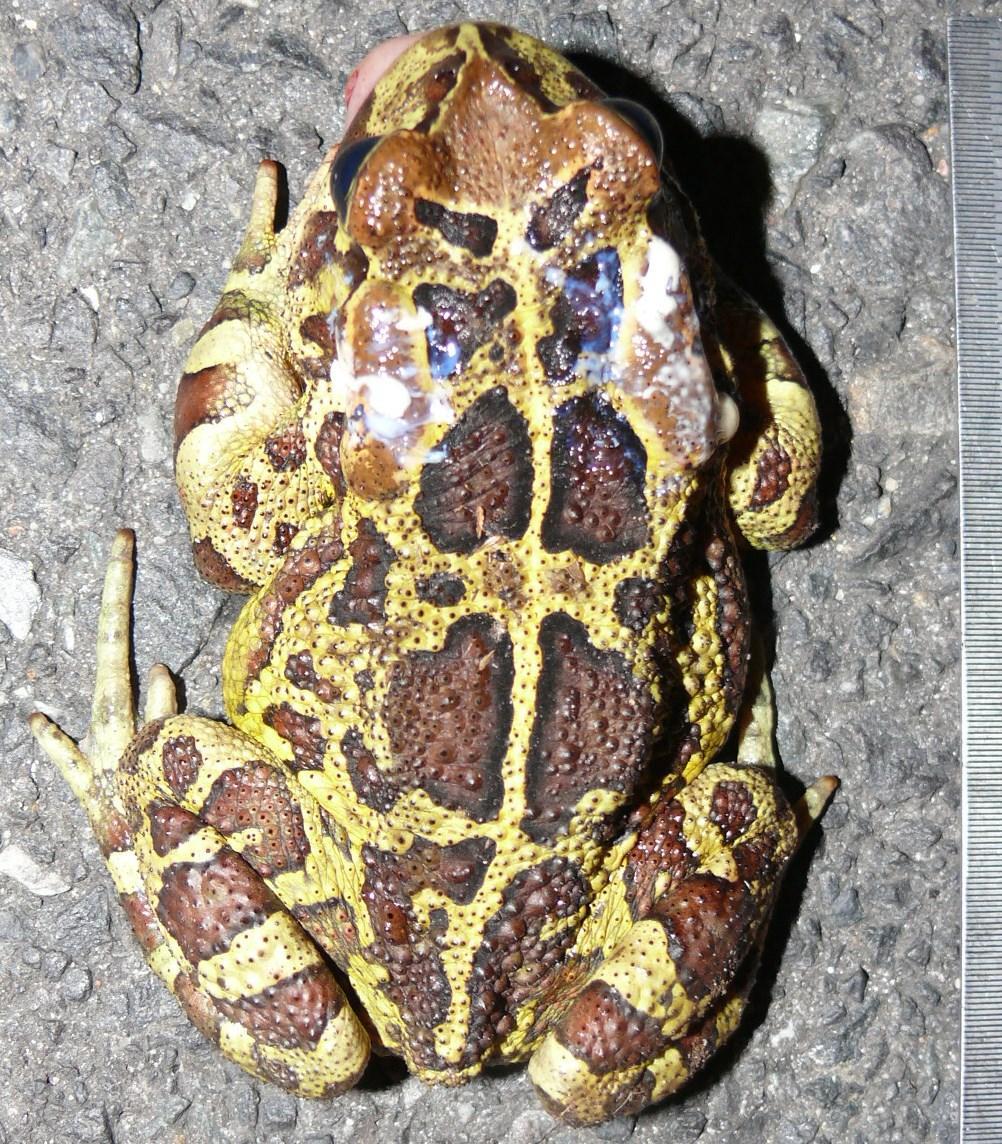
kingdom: Animalia
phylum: Chordata
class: Amphibia
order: Anura
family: Bufonidae
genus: Sclerophrys
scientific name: Sclerophrys pantherina
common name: Panther toad
